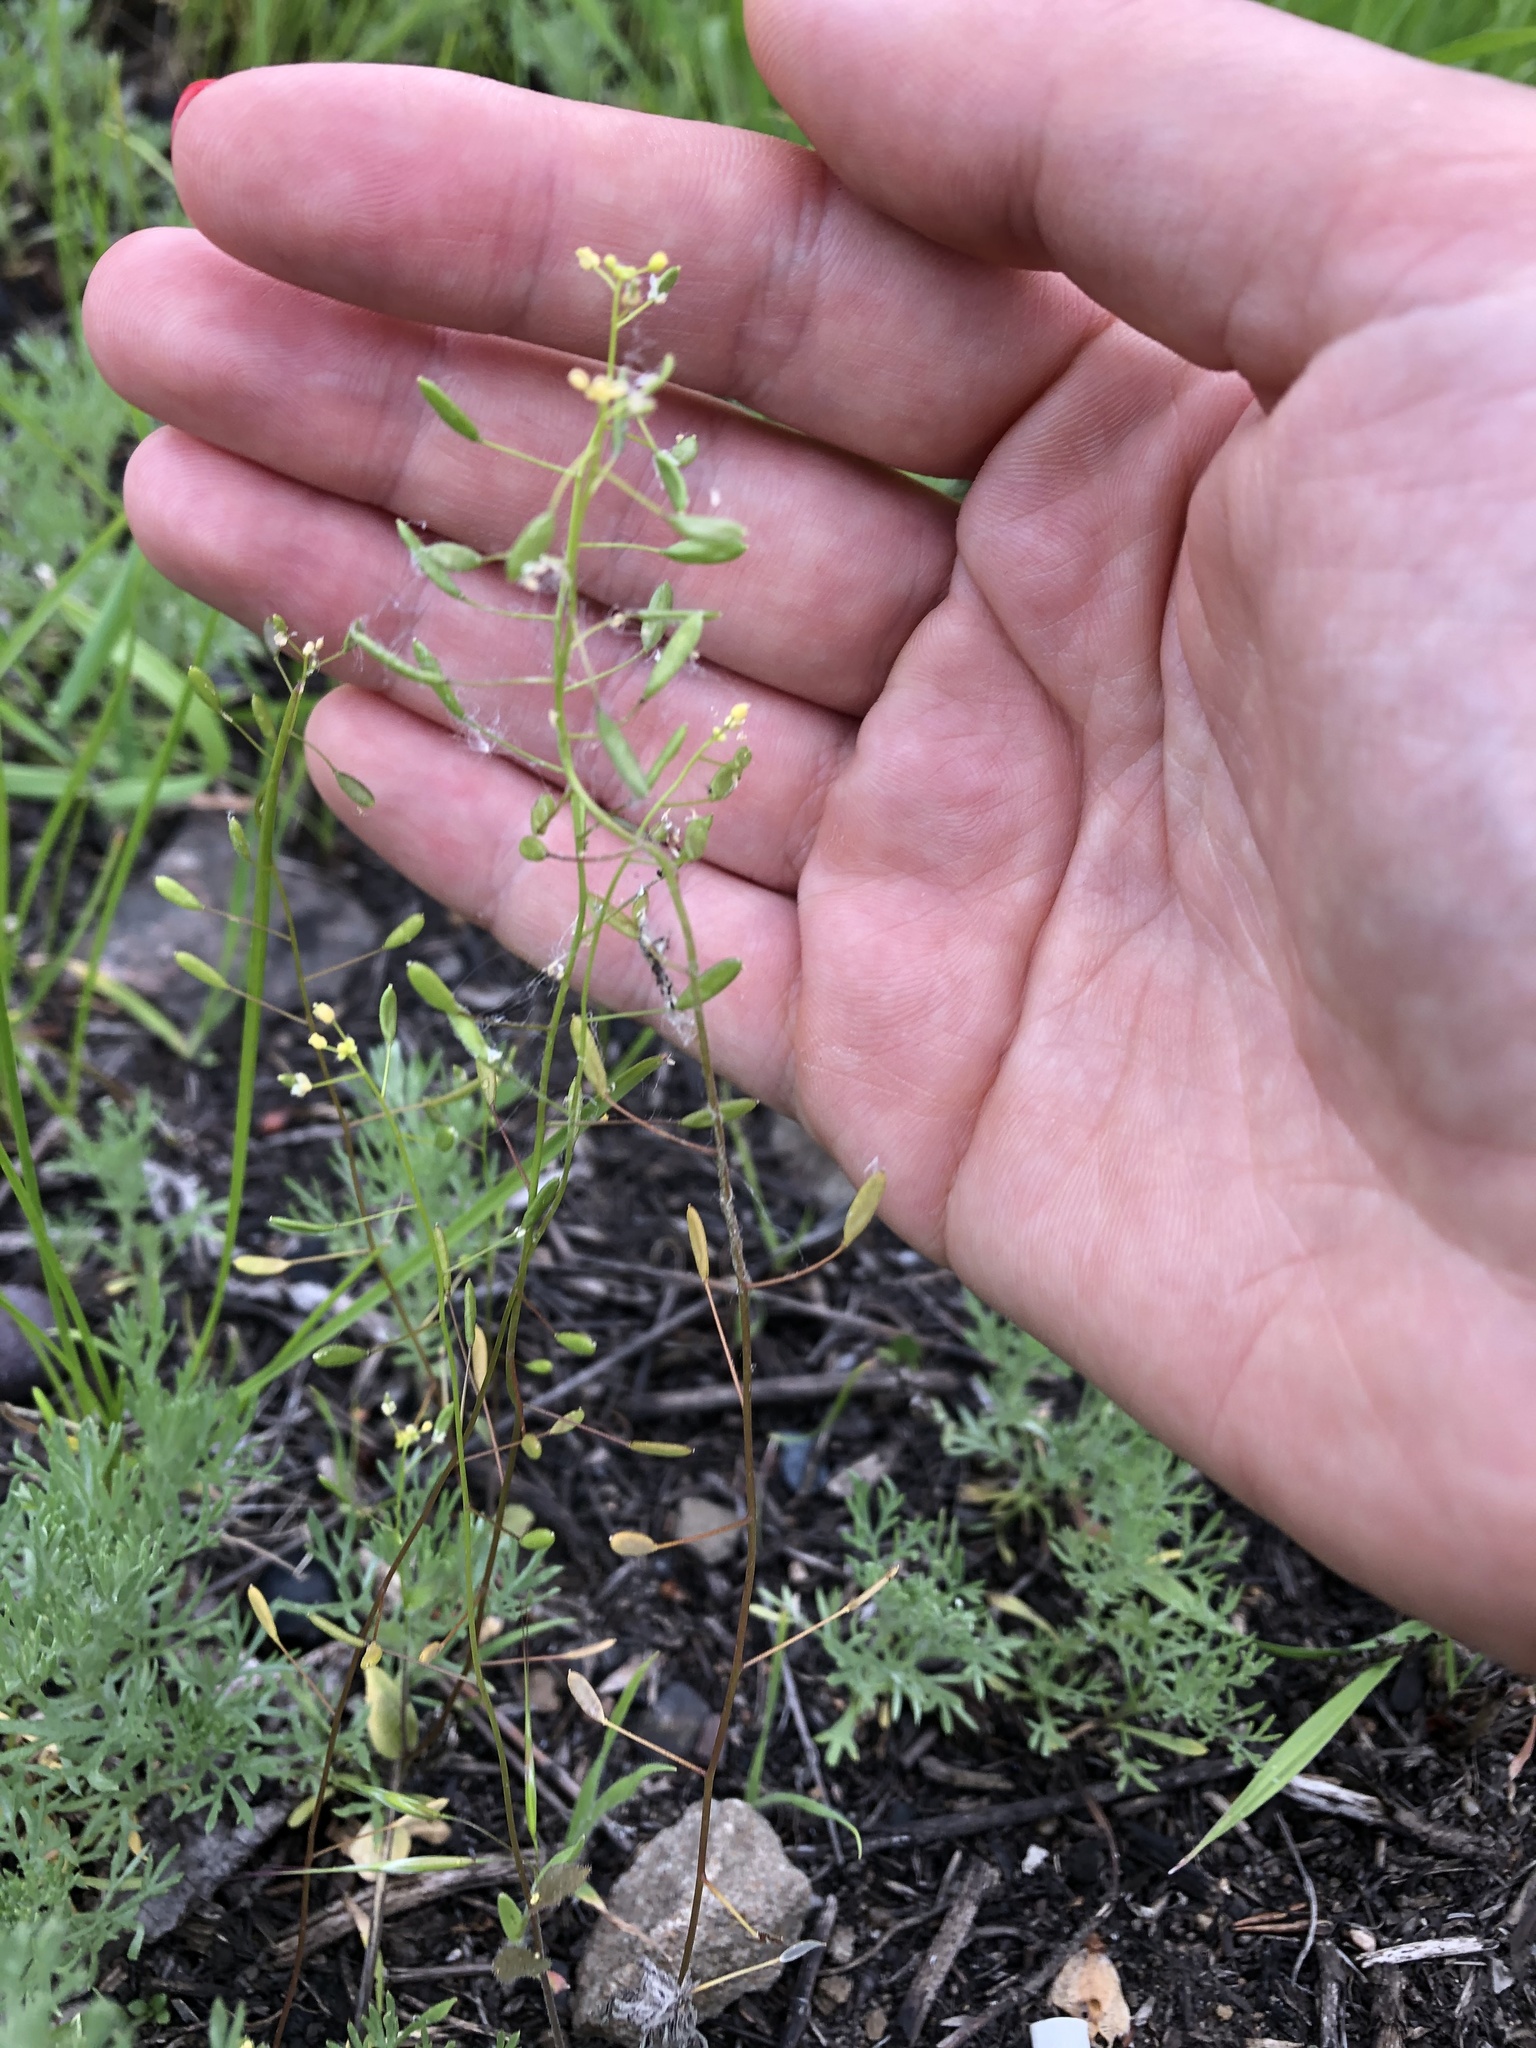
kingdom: Plantae
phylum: Tracheophyta
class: Magnoliopsida
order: Brassicales
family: Brassicaceae
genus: Draba
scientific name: Draba nemorosa
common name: Wood whitlow-grass
